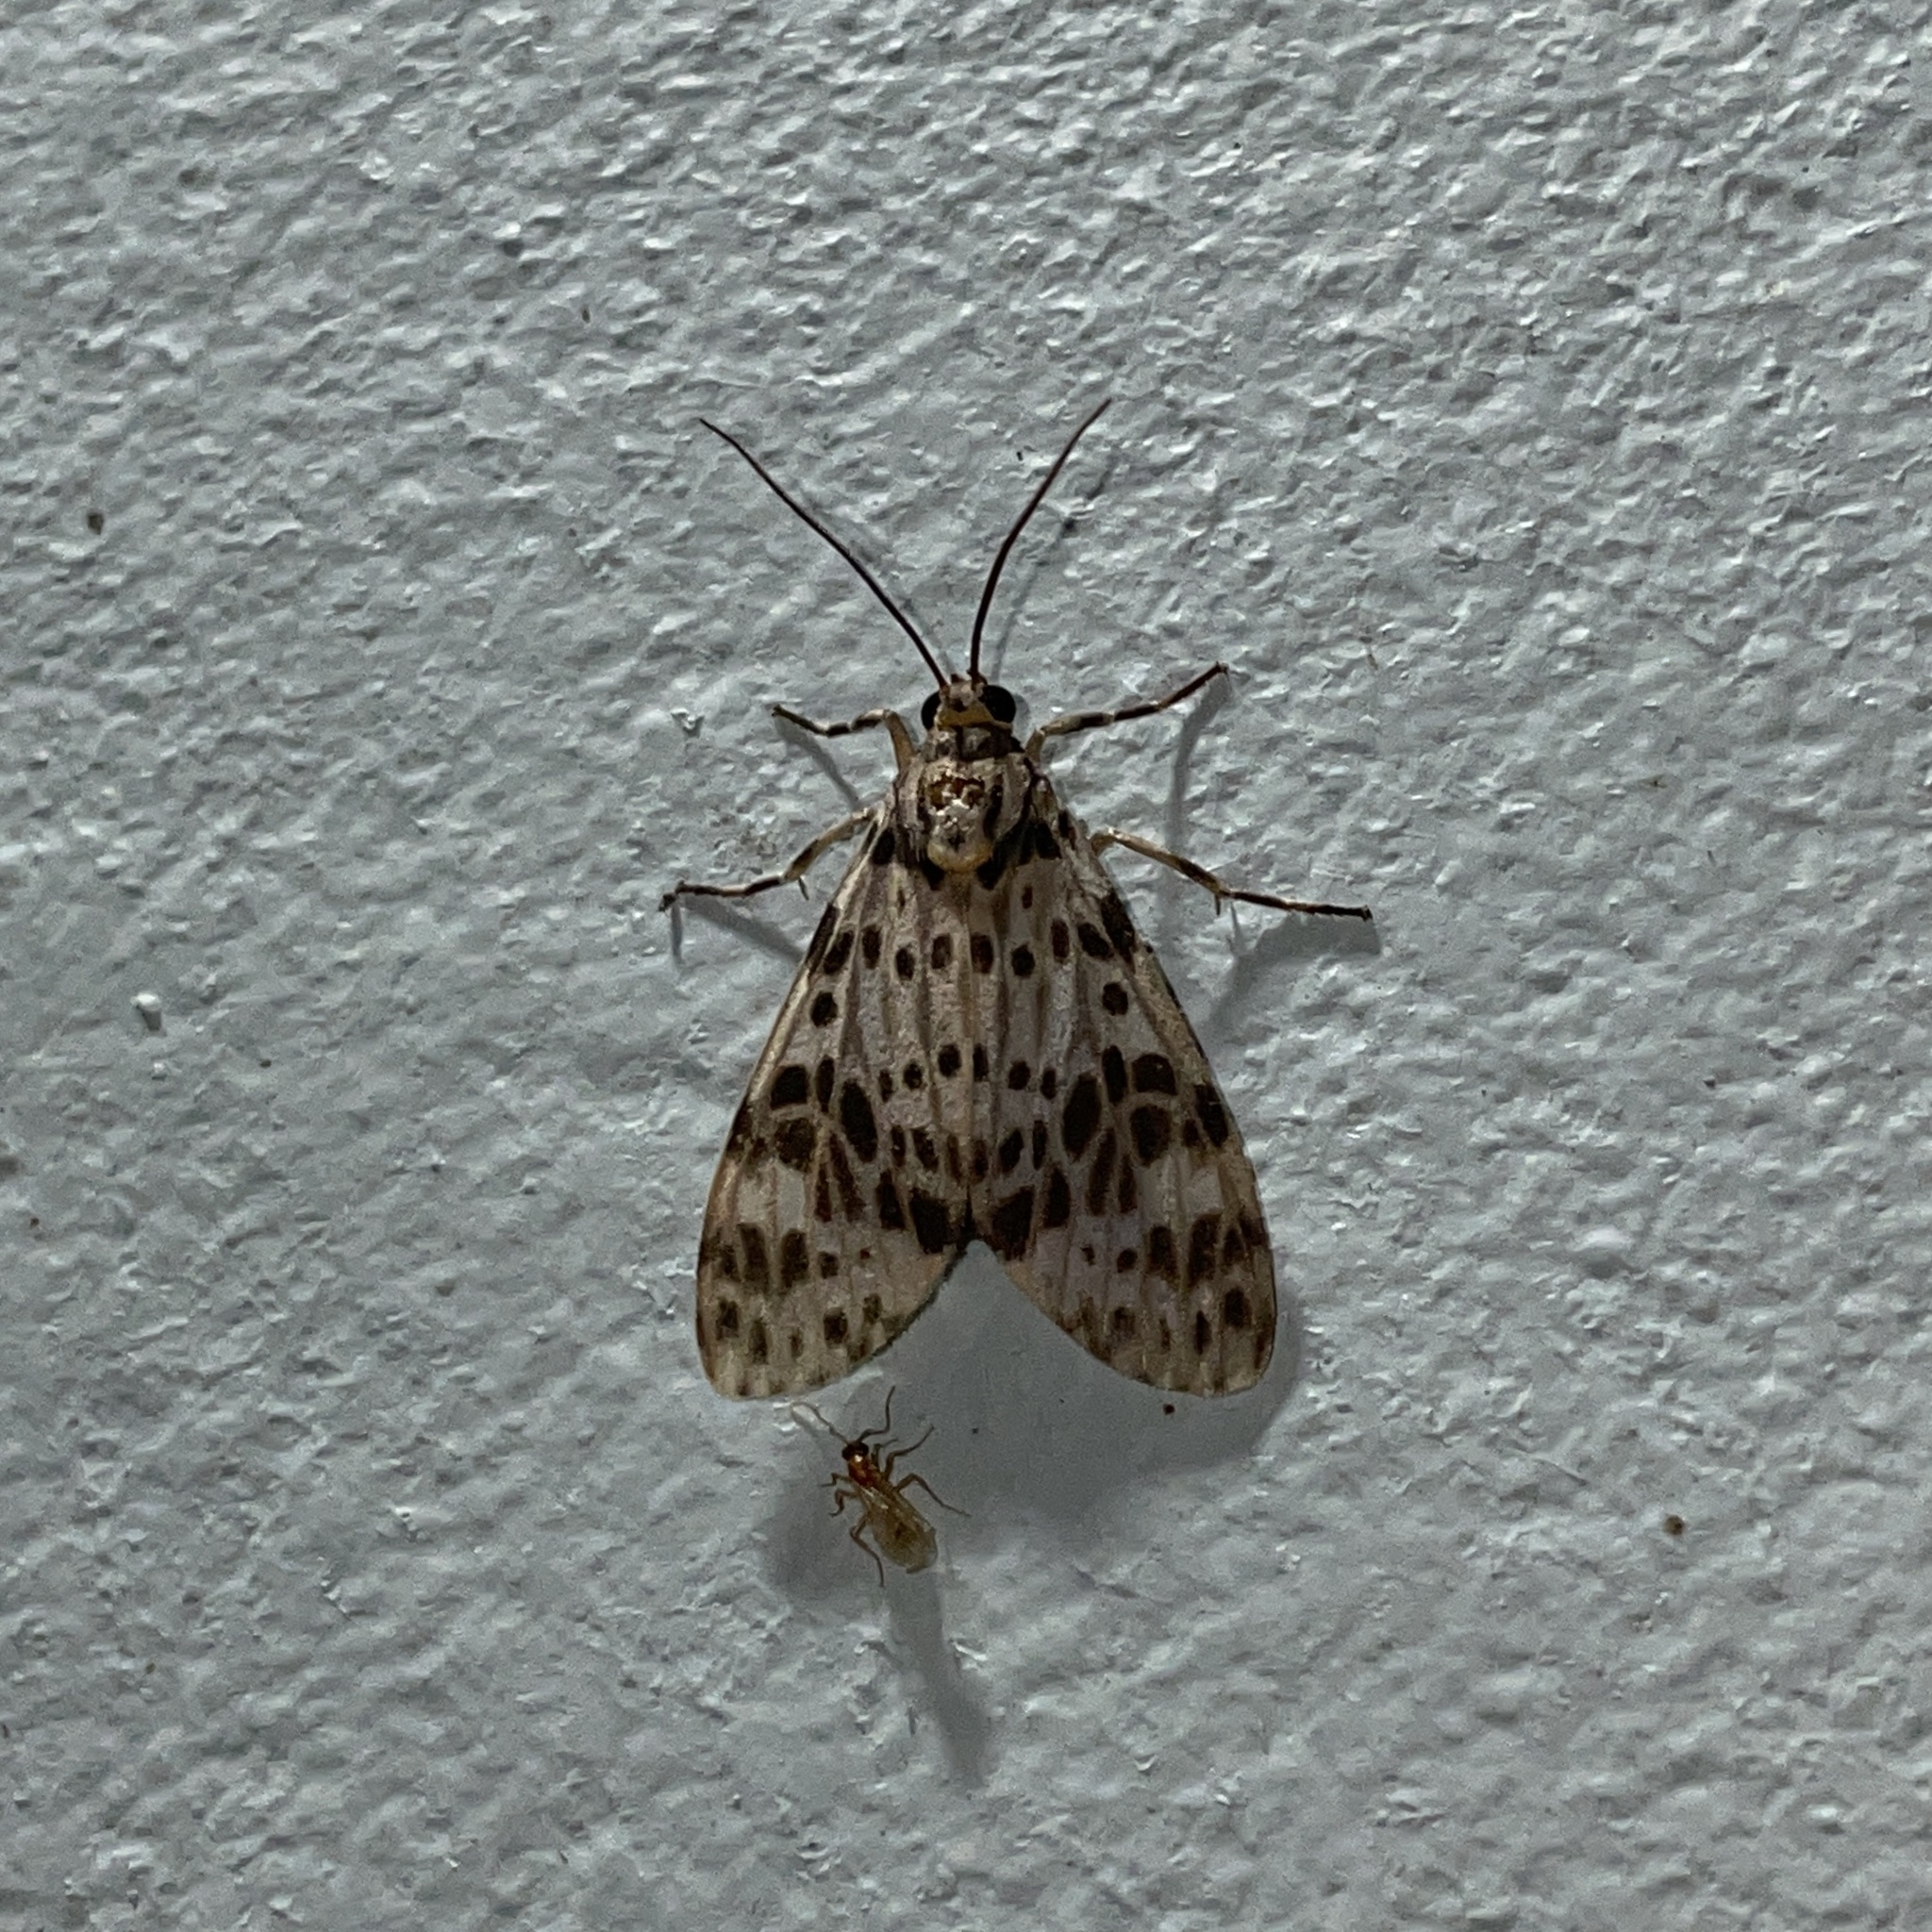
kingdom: Animalia
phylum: Arthropoda
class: Insecta
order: Lepidoptera
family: Erebidae
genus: Eucereon
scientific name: Eucereon punctata
